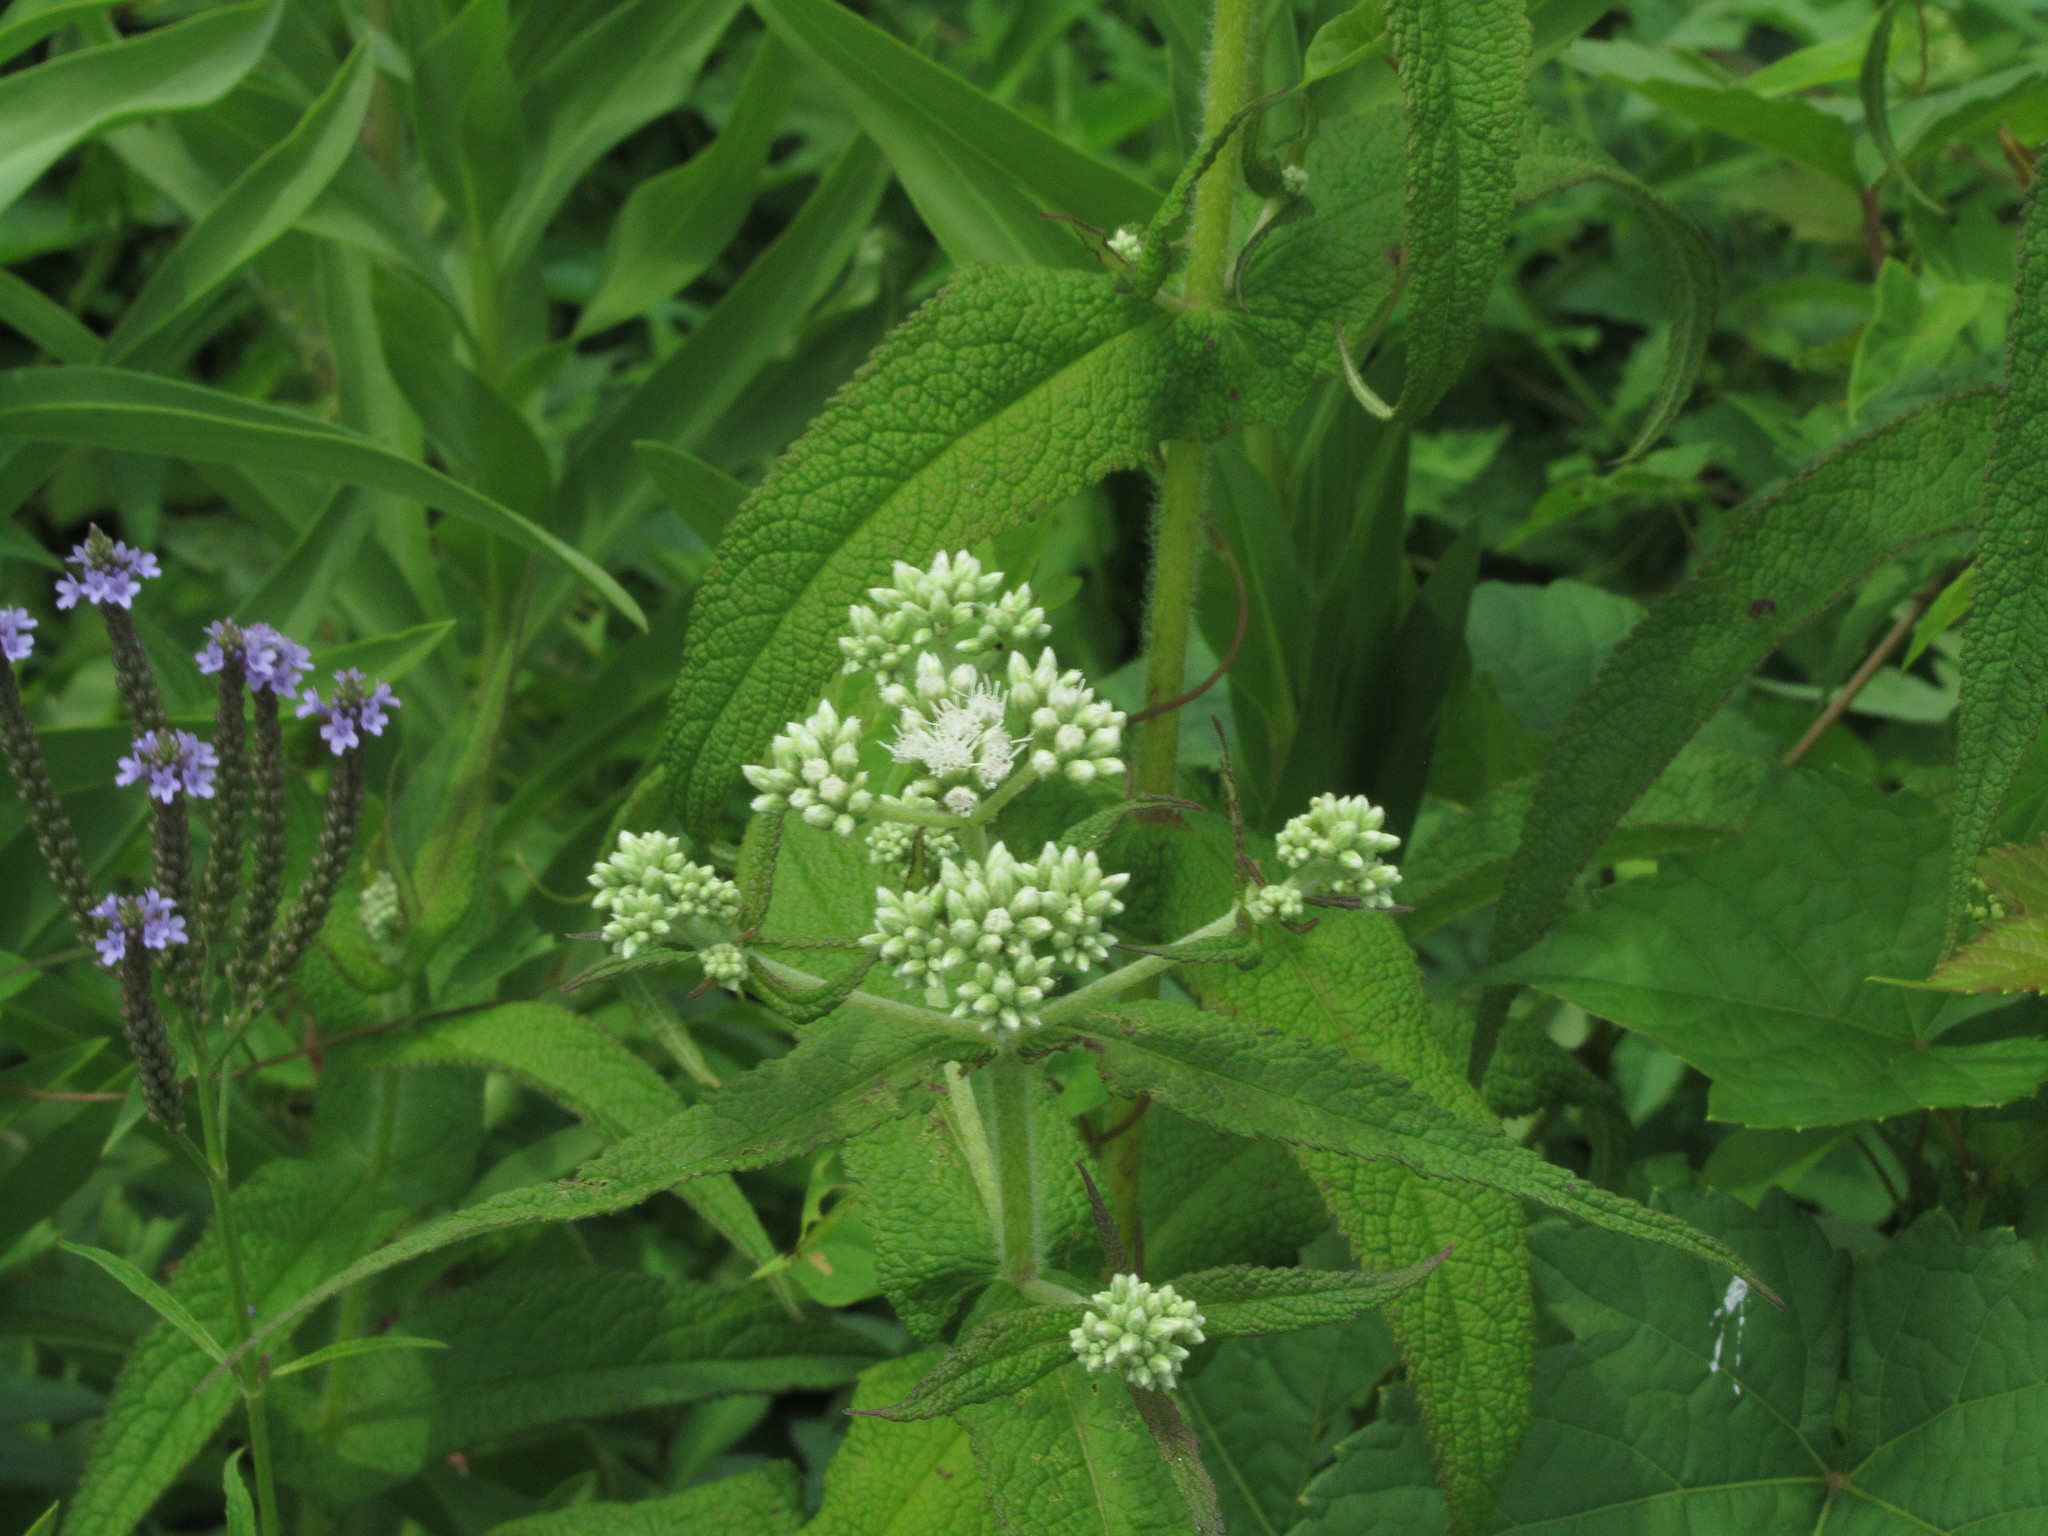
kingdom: Plantae
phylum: Tracheophyta
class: Magnoliopsida
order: Asterales
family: Asteraceae
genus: Eupatorium
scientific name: Eupatorium perfoliatum
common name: Boneset
